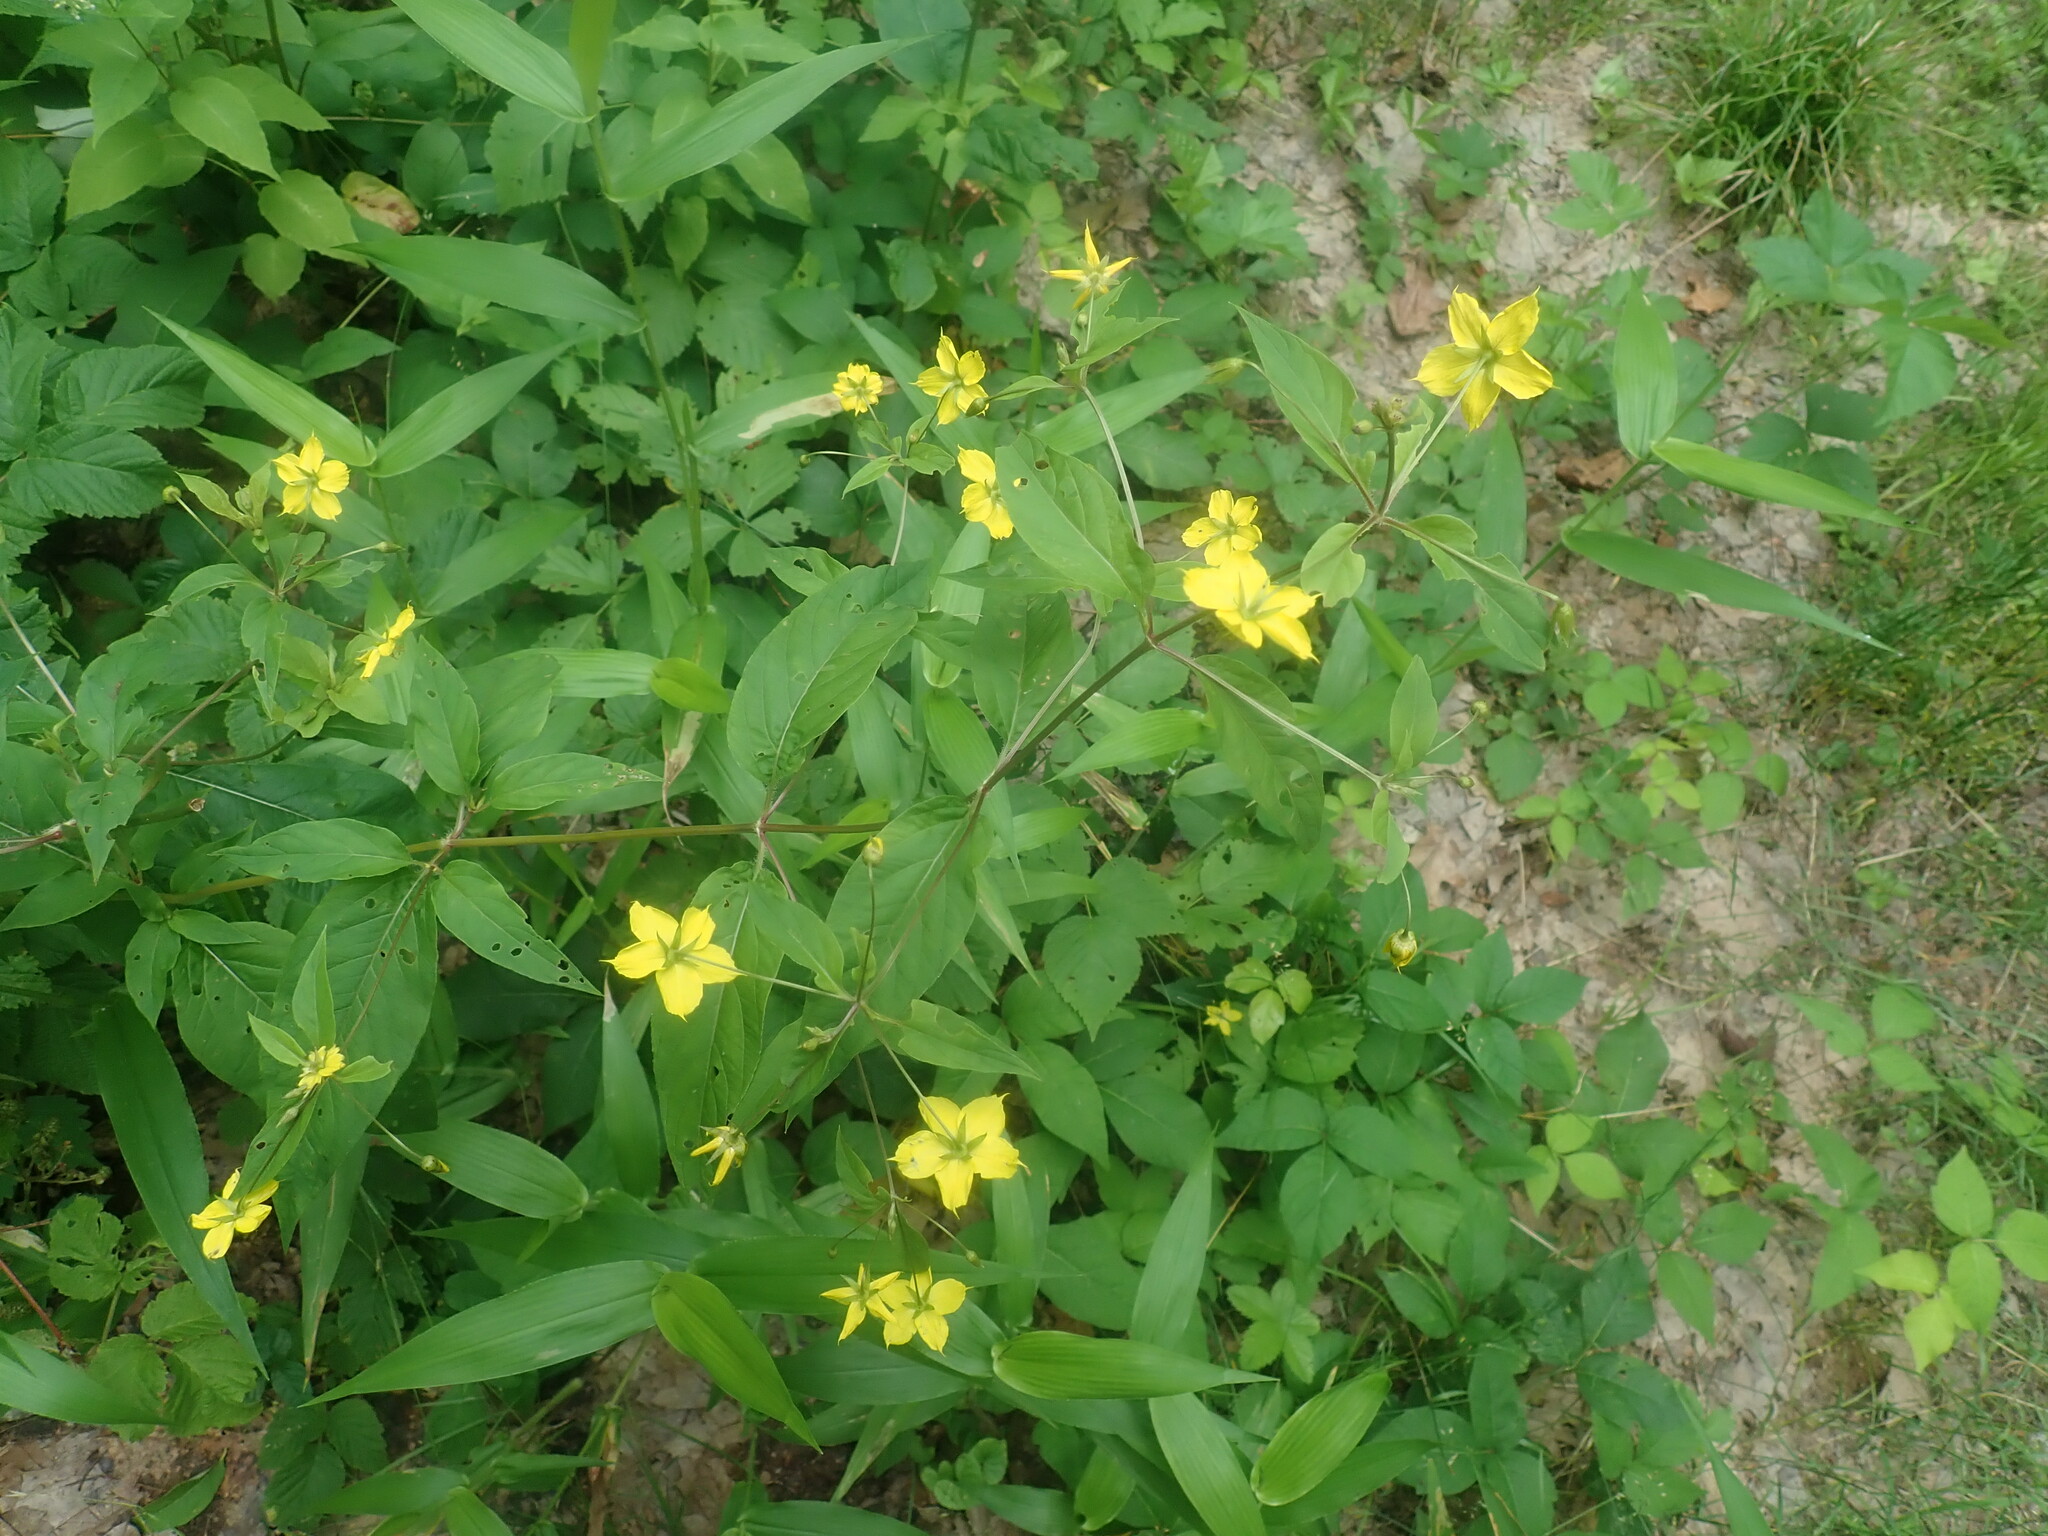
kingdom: Plantae
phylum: Tracheophyta
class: Magnoliopsida
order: Ericales
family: Primulaceae
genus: Lysimachia
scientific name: Lysimachia ciliata
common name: Fringed loosestrife
